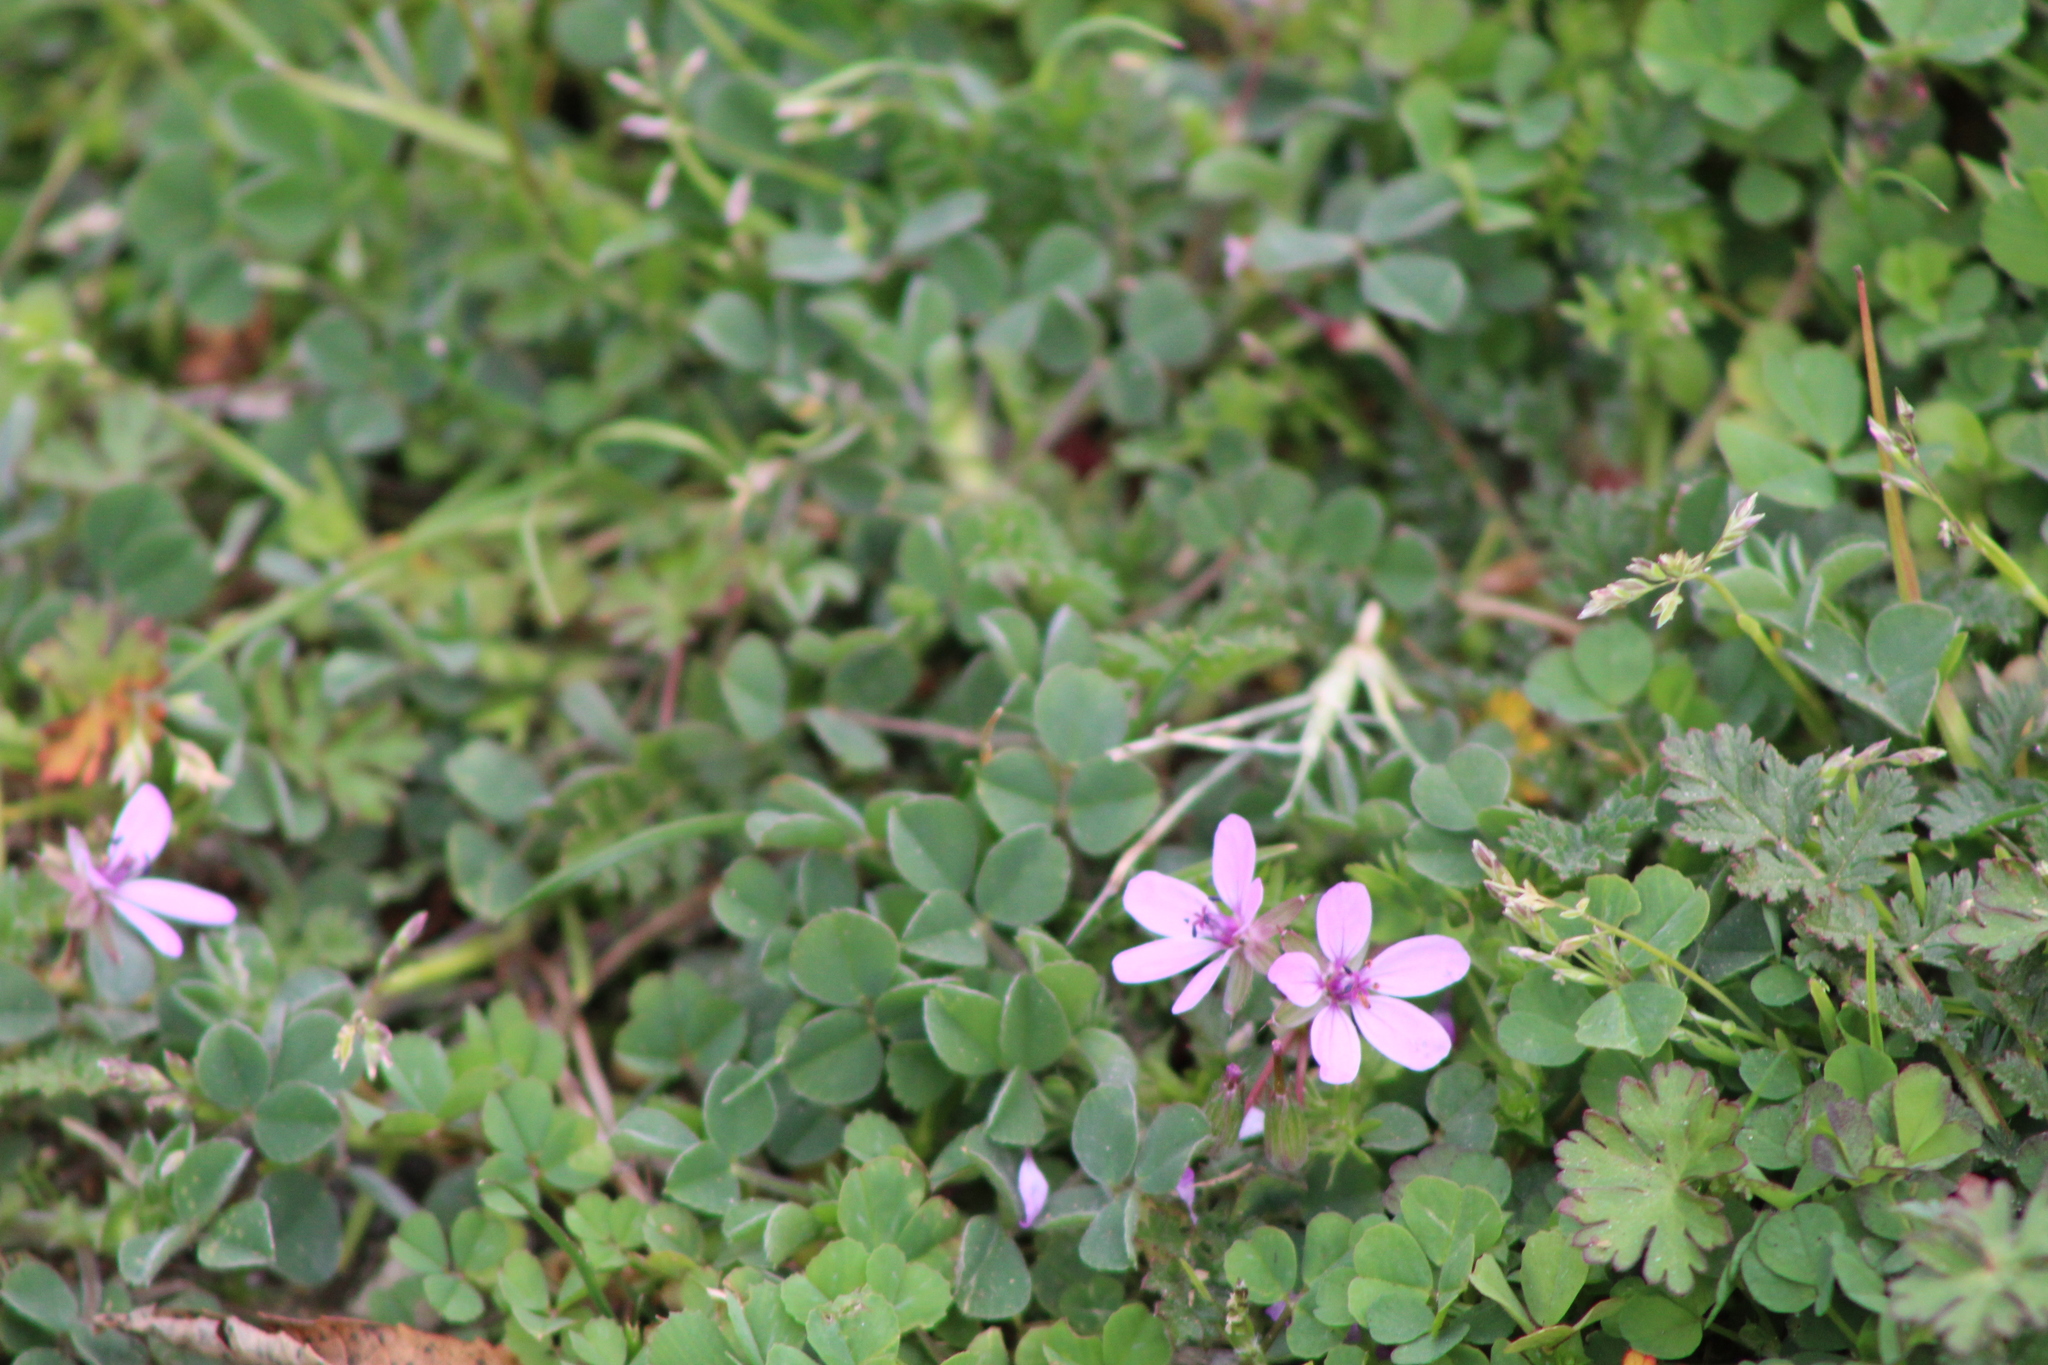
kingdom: Plantae
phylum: Tracheophyta
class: Magnoliopsida
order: Geraniales
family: Geraniaceae
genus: Erodium
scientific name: Erodium cicutarium
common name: Common stork's-bill
